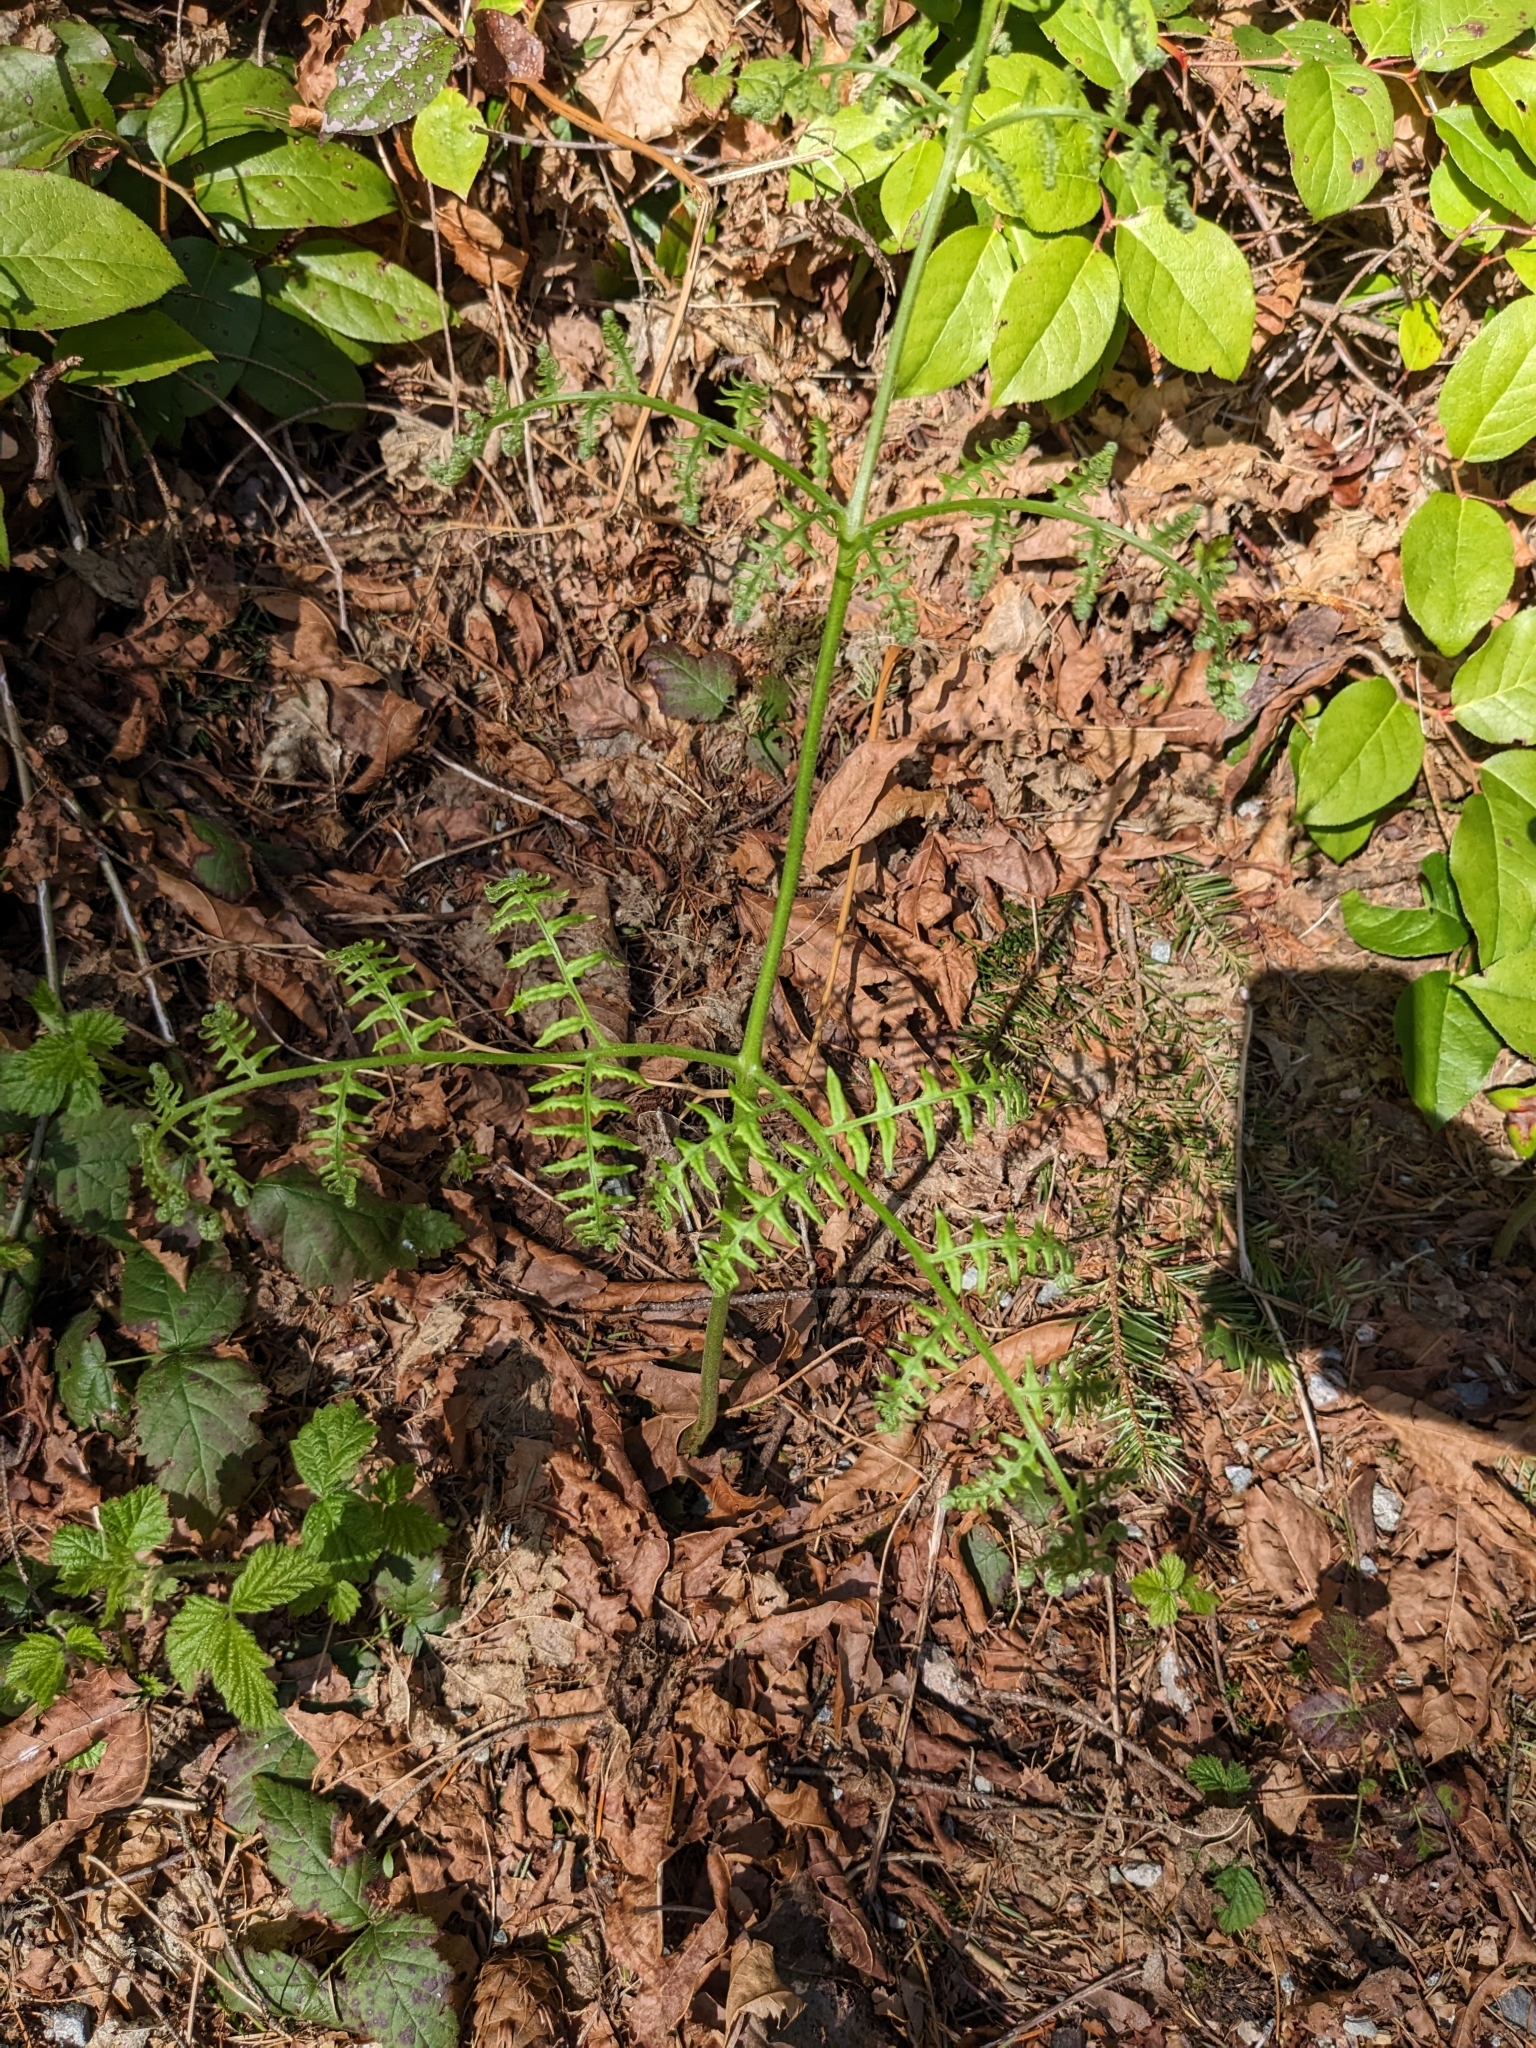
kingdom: Plantae
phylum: Tracheophyta
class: Polypodiopsida
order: Polypodiales
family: Dennstaedtiaceae
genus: Pteridium
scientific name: Pteridium aquilinum
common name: Bracken
